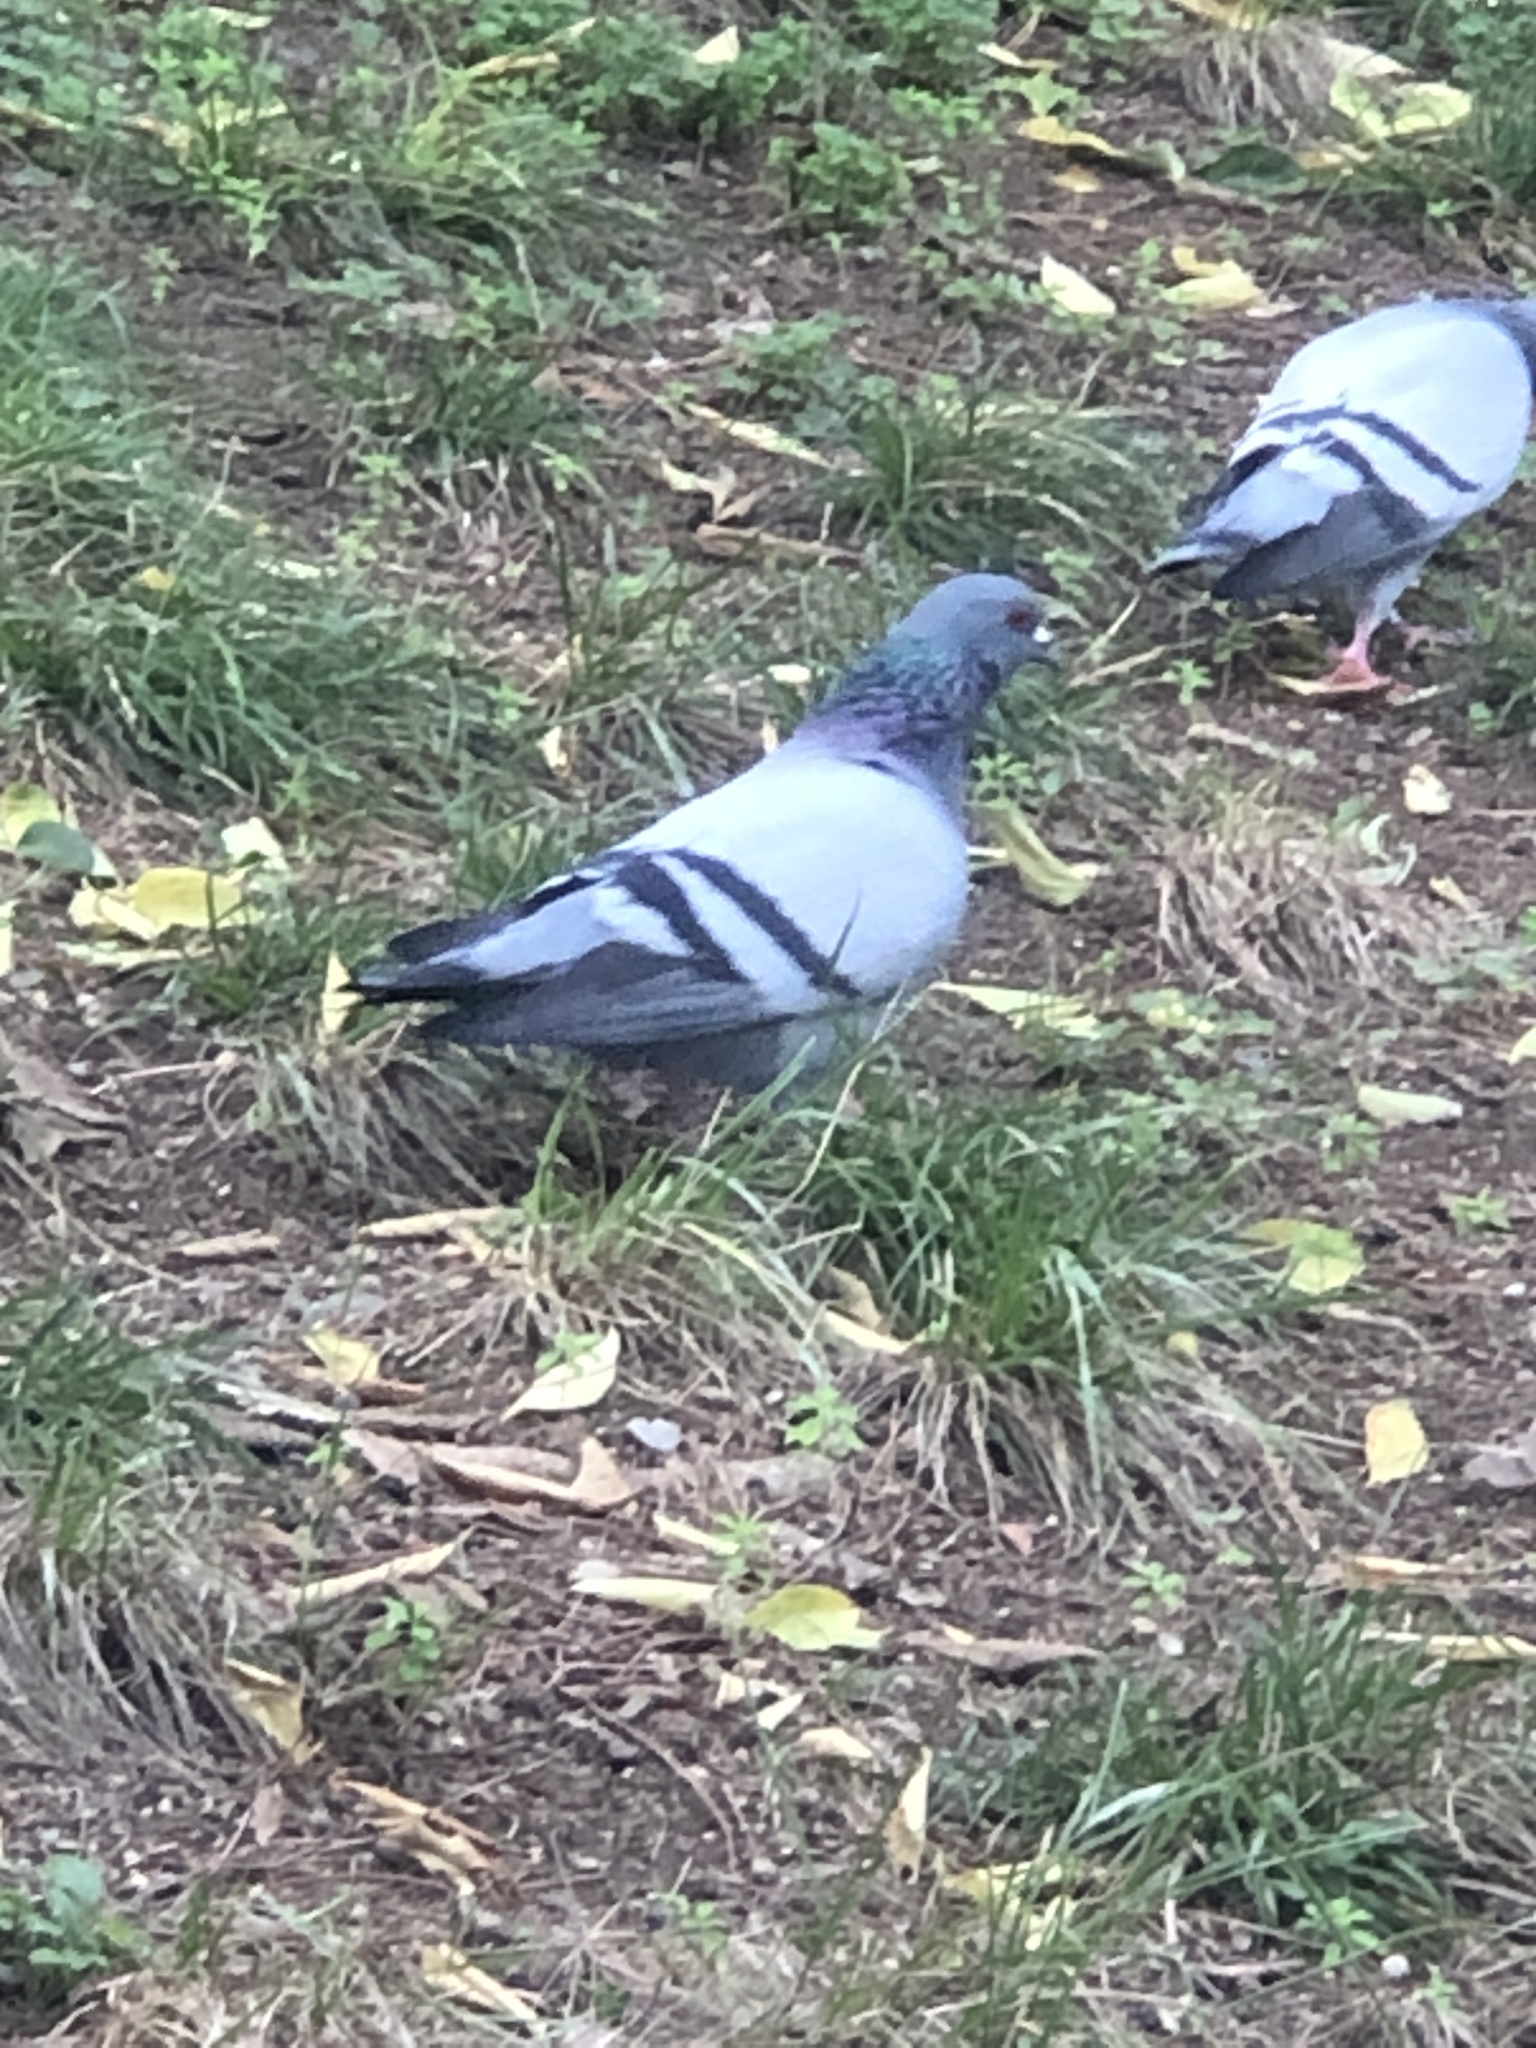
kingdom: Animalia
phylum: Chordata
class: Aves
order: Columbiformes
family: Columbidae
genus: Columba
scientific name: Columba livia
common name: Rock pigeon
